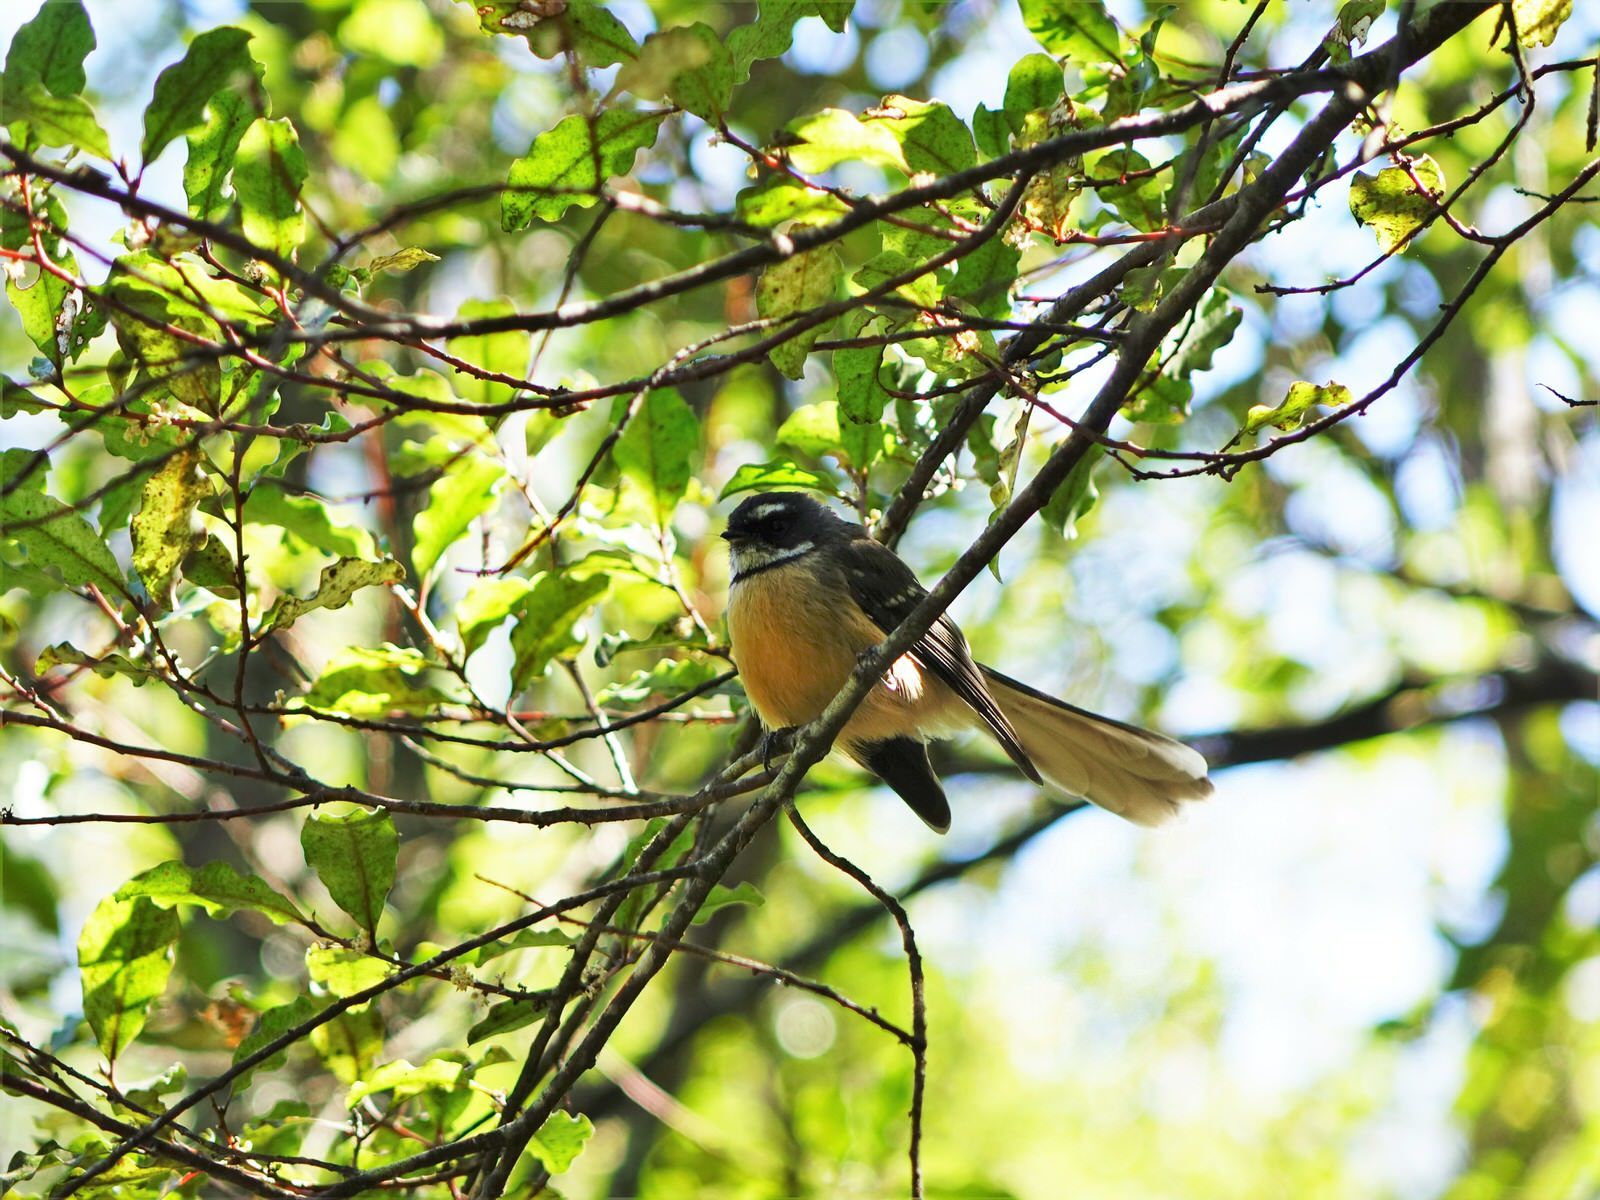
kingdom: Animalia
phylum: Chordata
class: Aves
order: Passeriformes
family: Rhipiduridae
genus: Rhipidura
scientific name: Rhipidura fuliginosa
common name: New zealand fantail
